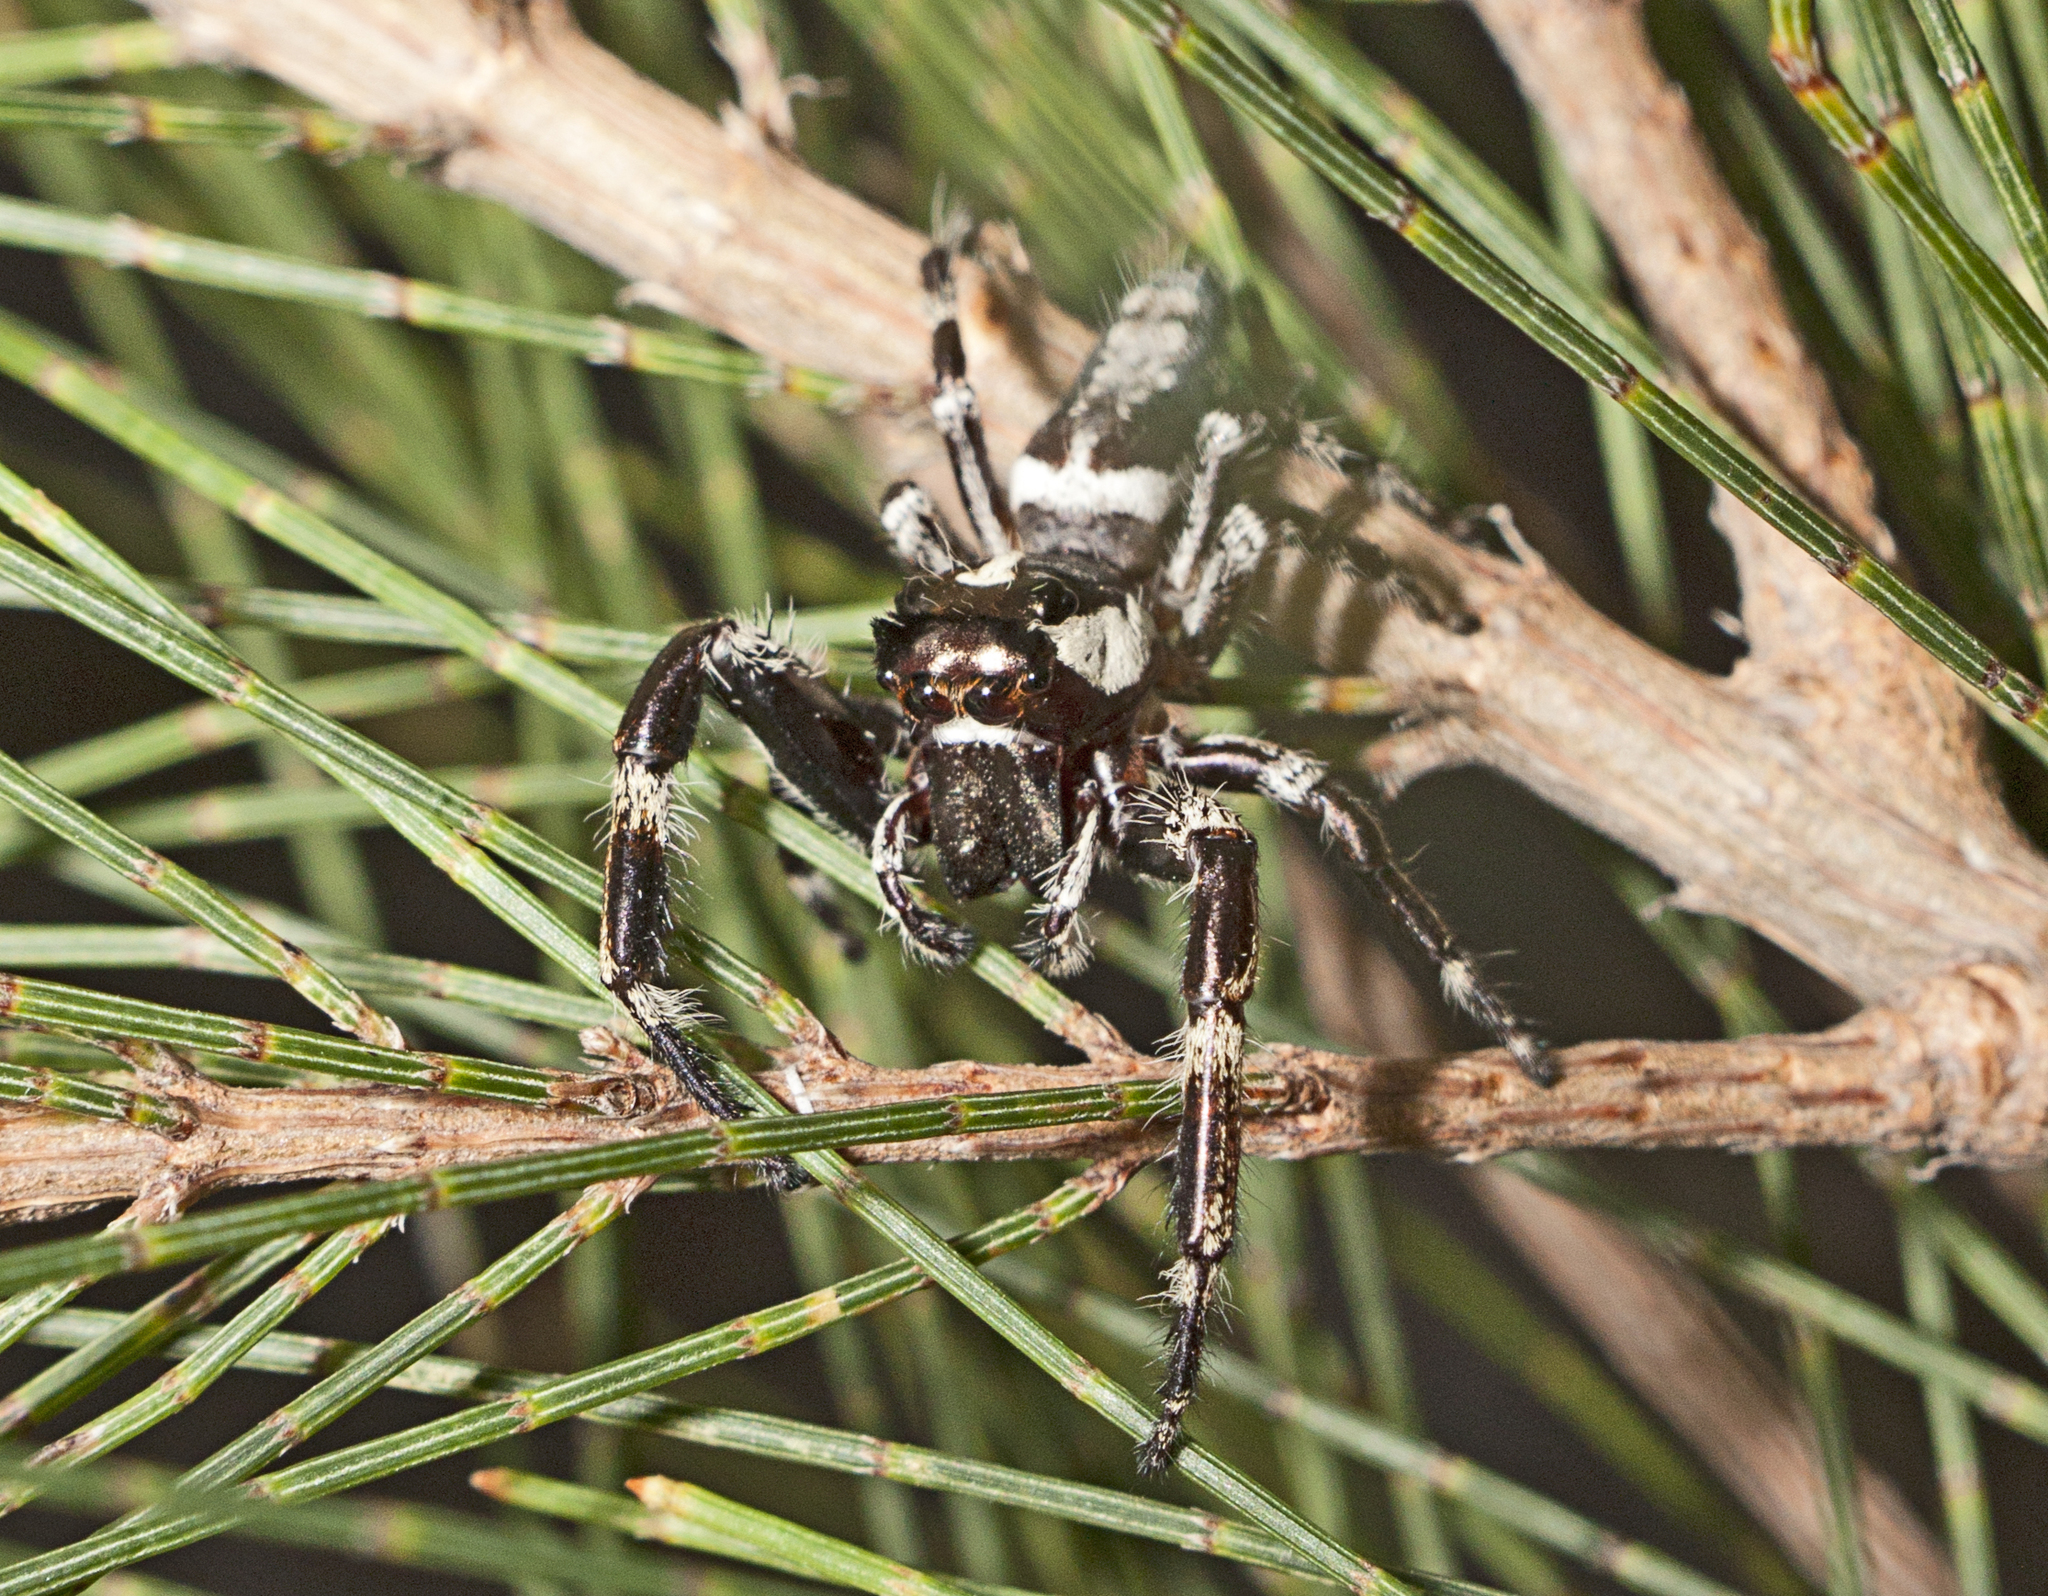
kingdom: Animalia
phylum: Arthropoda
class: Arachnida
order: Araneae
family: Salticidae
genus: Sandalodes
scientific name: Sandalodes bipenicillatus
